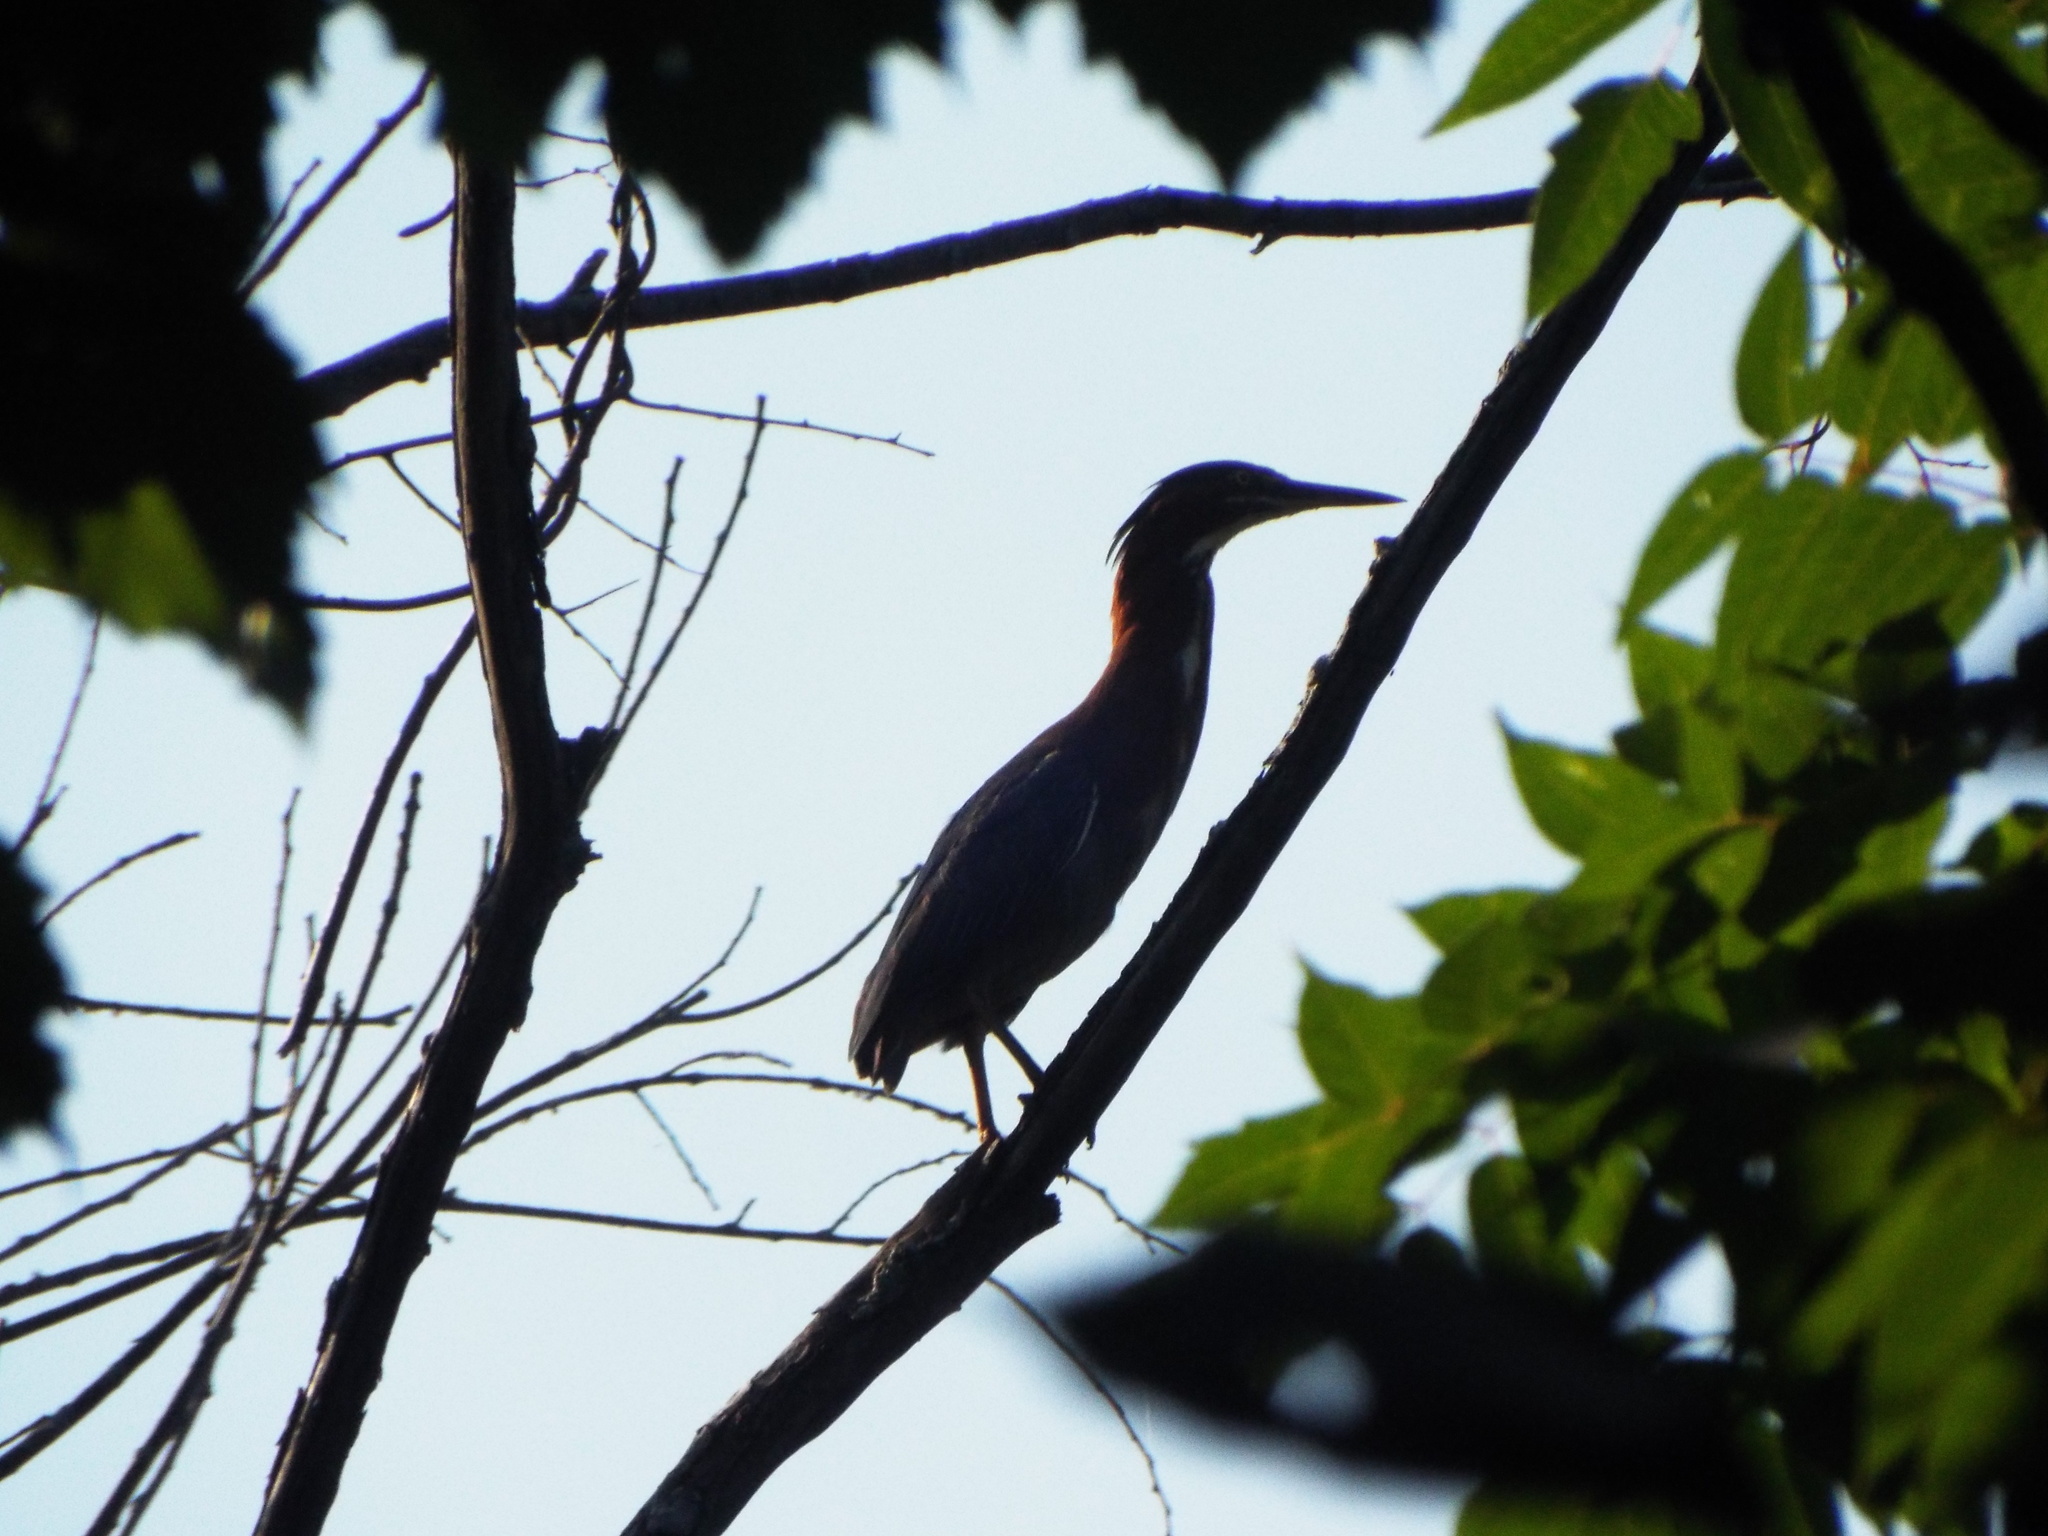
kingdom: Animalia
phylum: Chordata
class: Aves
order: Pelecaniformes
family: Ardeidae
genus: Butorides
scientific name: Butorides virescens
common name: Green heron
